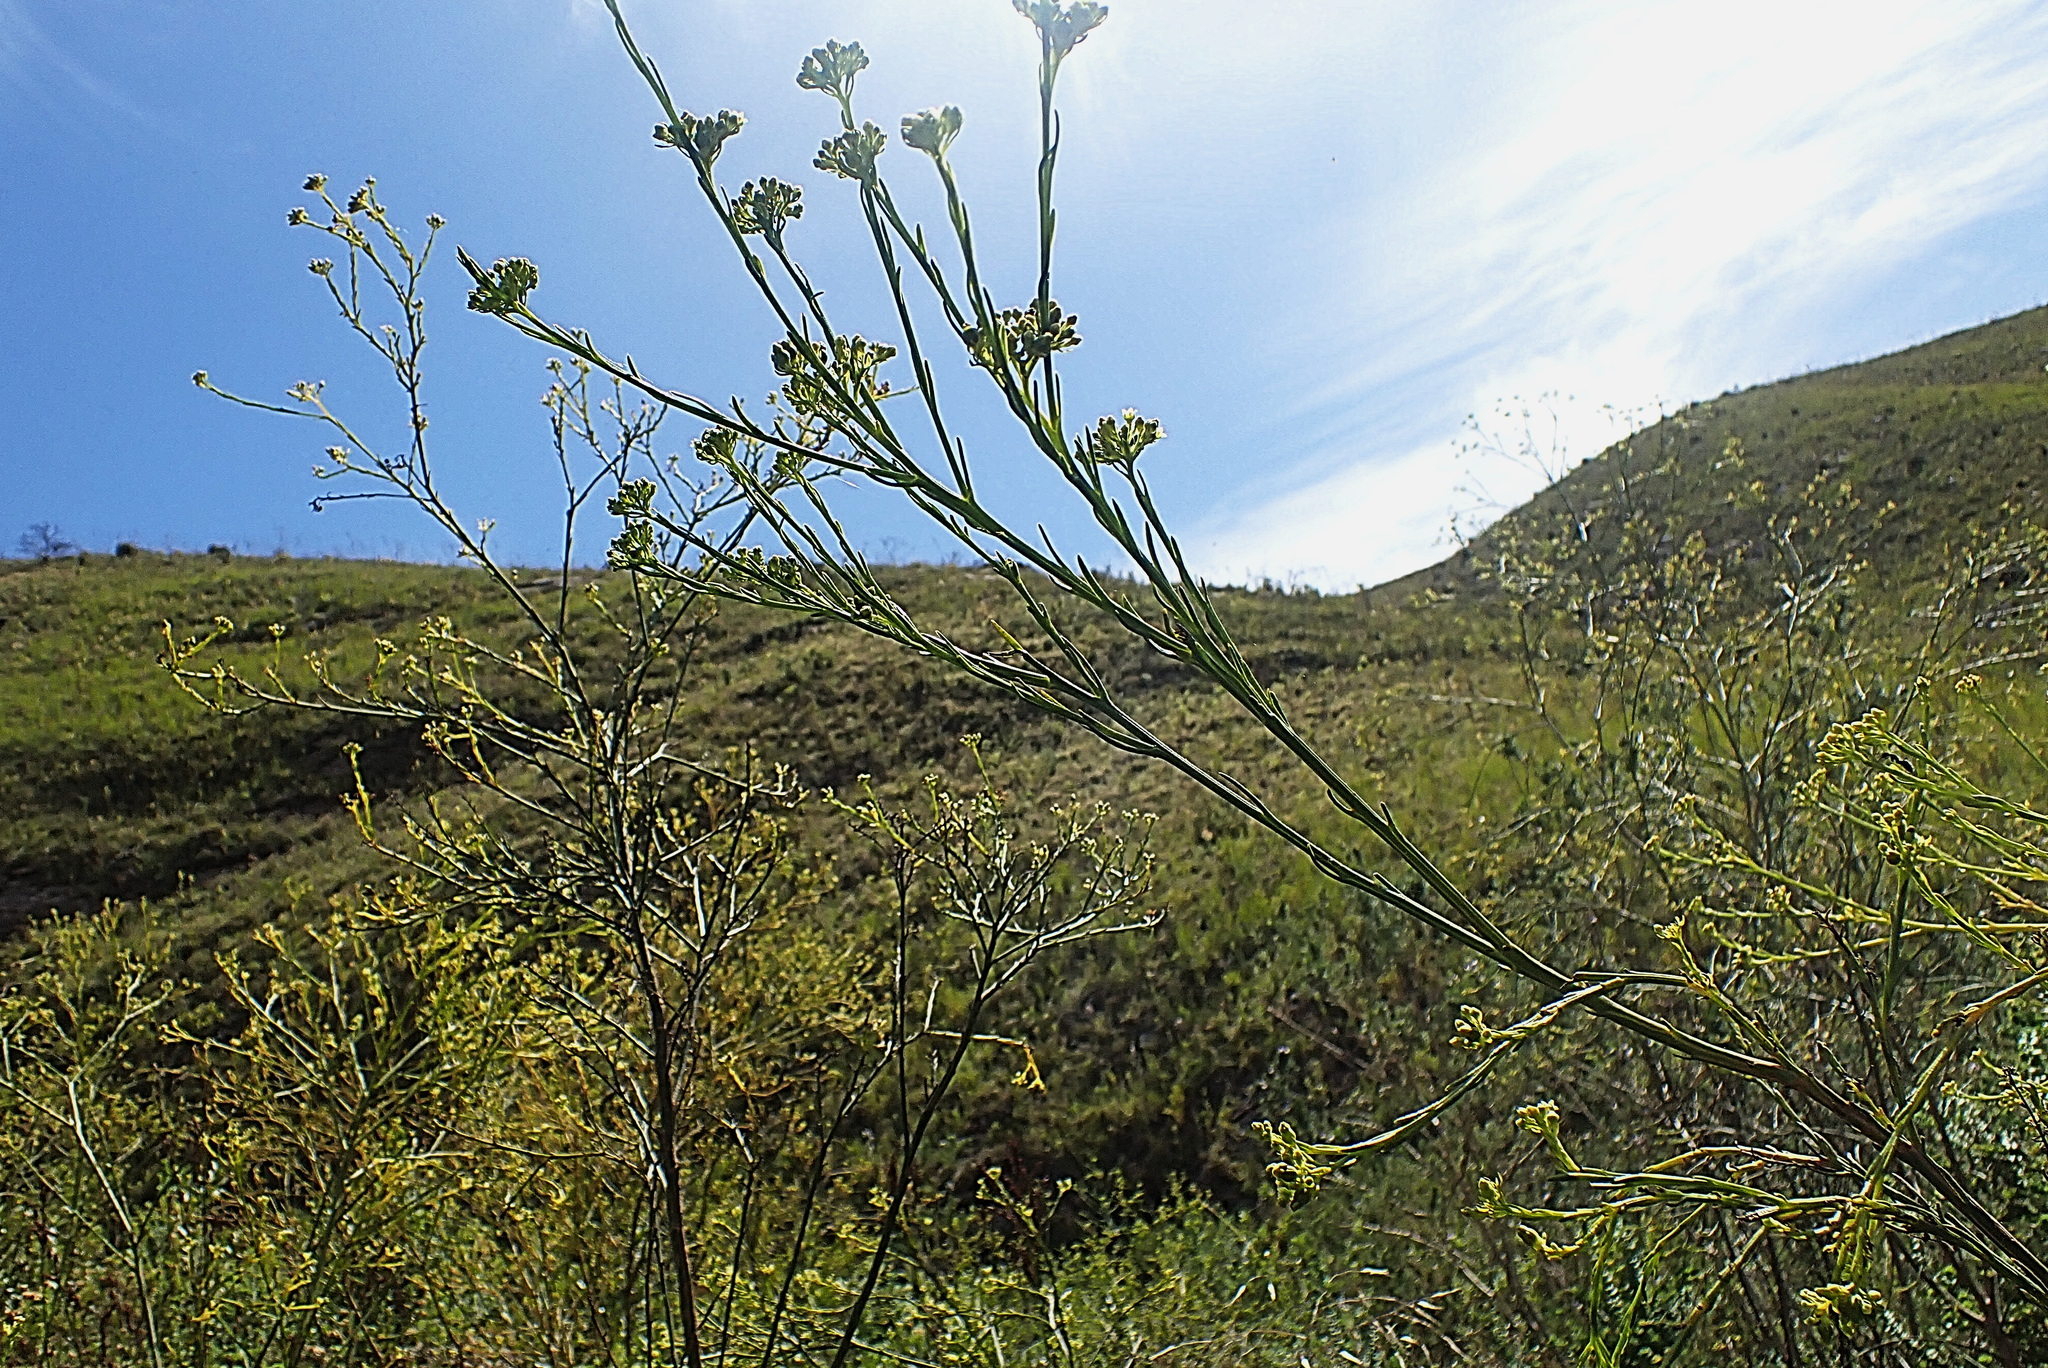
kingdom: Plantae
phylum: Tracheophyta
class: Magnoliopsida
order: Santalales
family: Thesiaceae
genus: Thesium
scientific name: Thesium strictum
